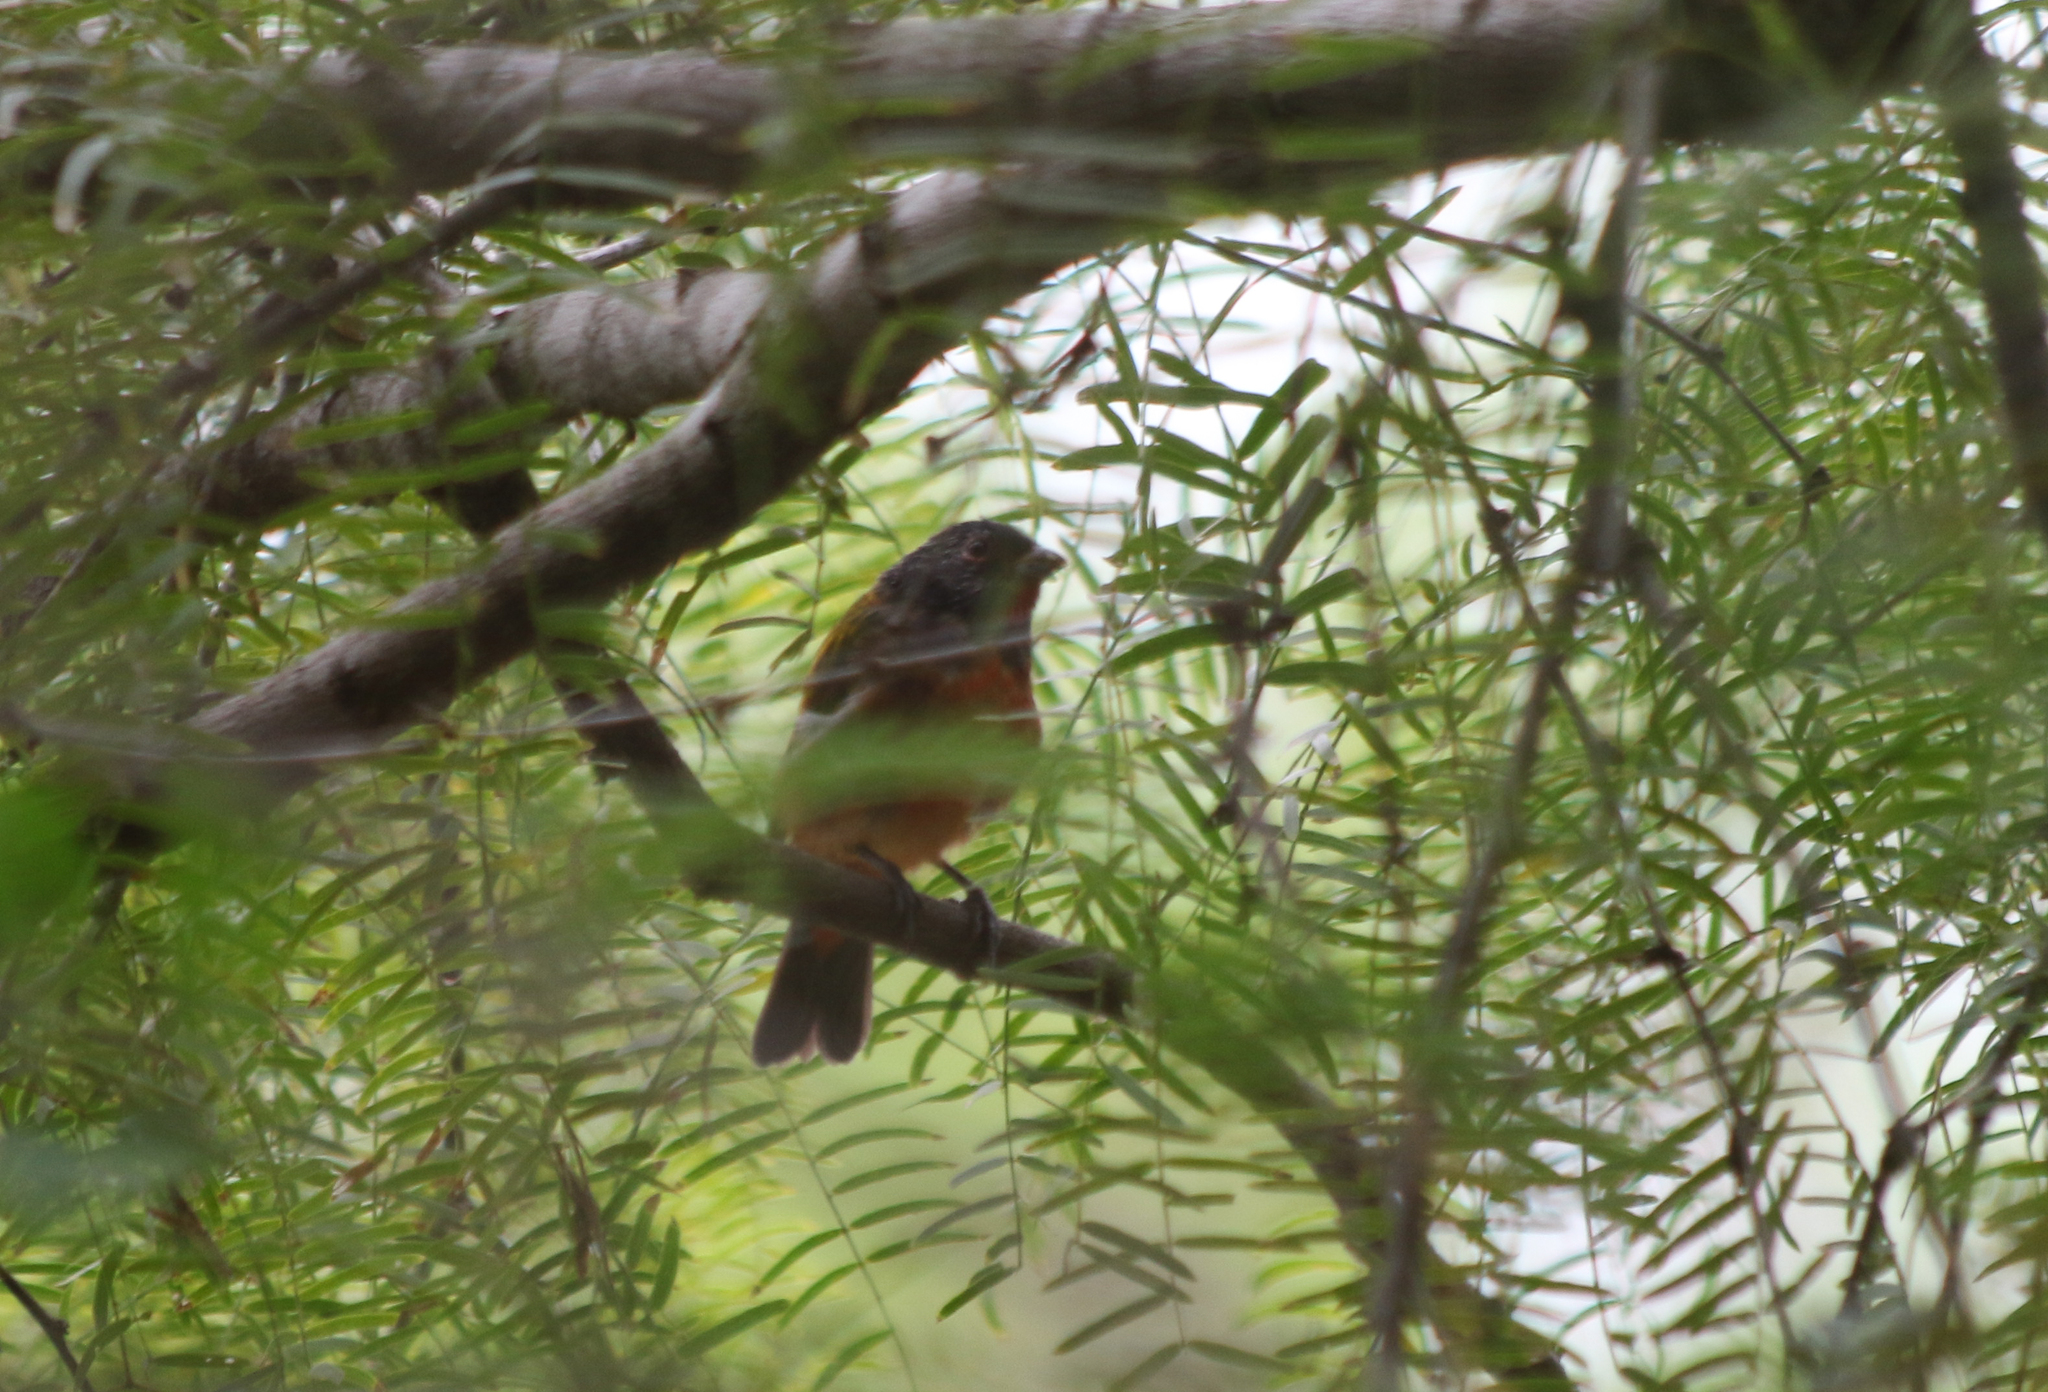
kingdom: Animalia
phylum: Chordata
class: Aves
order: Passeriformes
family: Cardinalidae
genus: Passerina
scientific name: Passerina ciris
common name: Painted bunting
